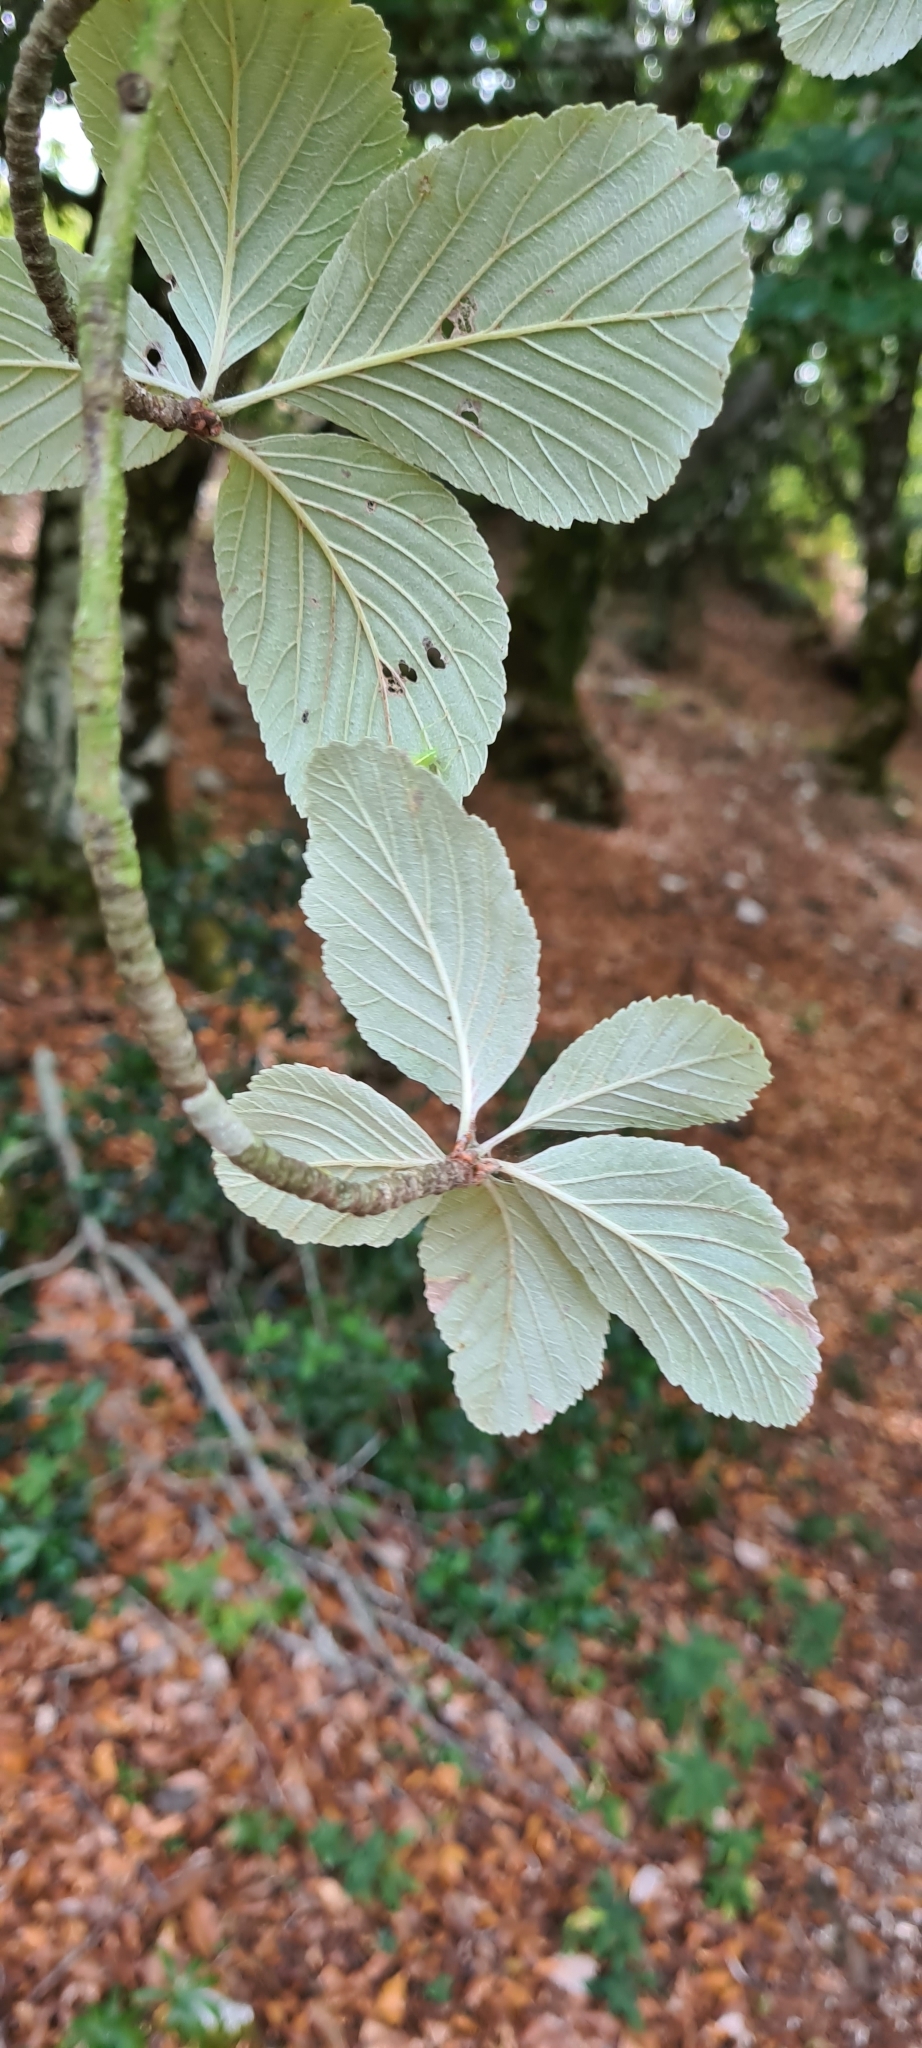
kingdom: Plantae
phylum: Tracheophyta
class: Magnoliopsida
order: Rosales
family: Rosaceae
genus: Aria
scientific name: Aria edulis
